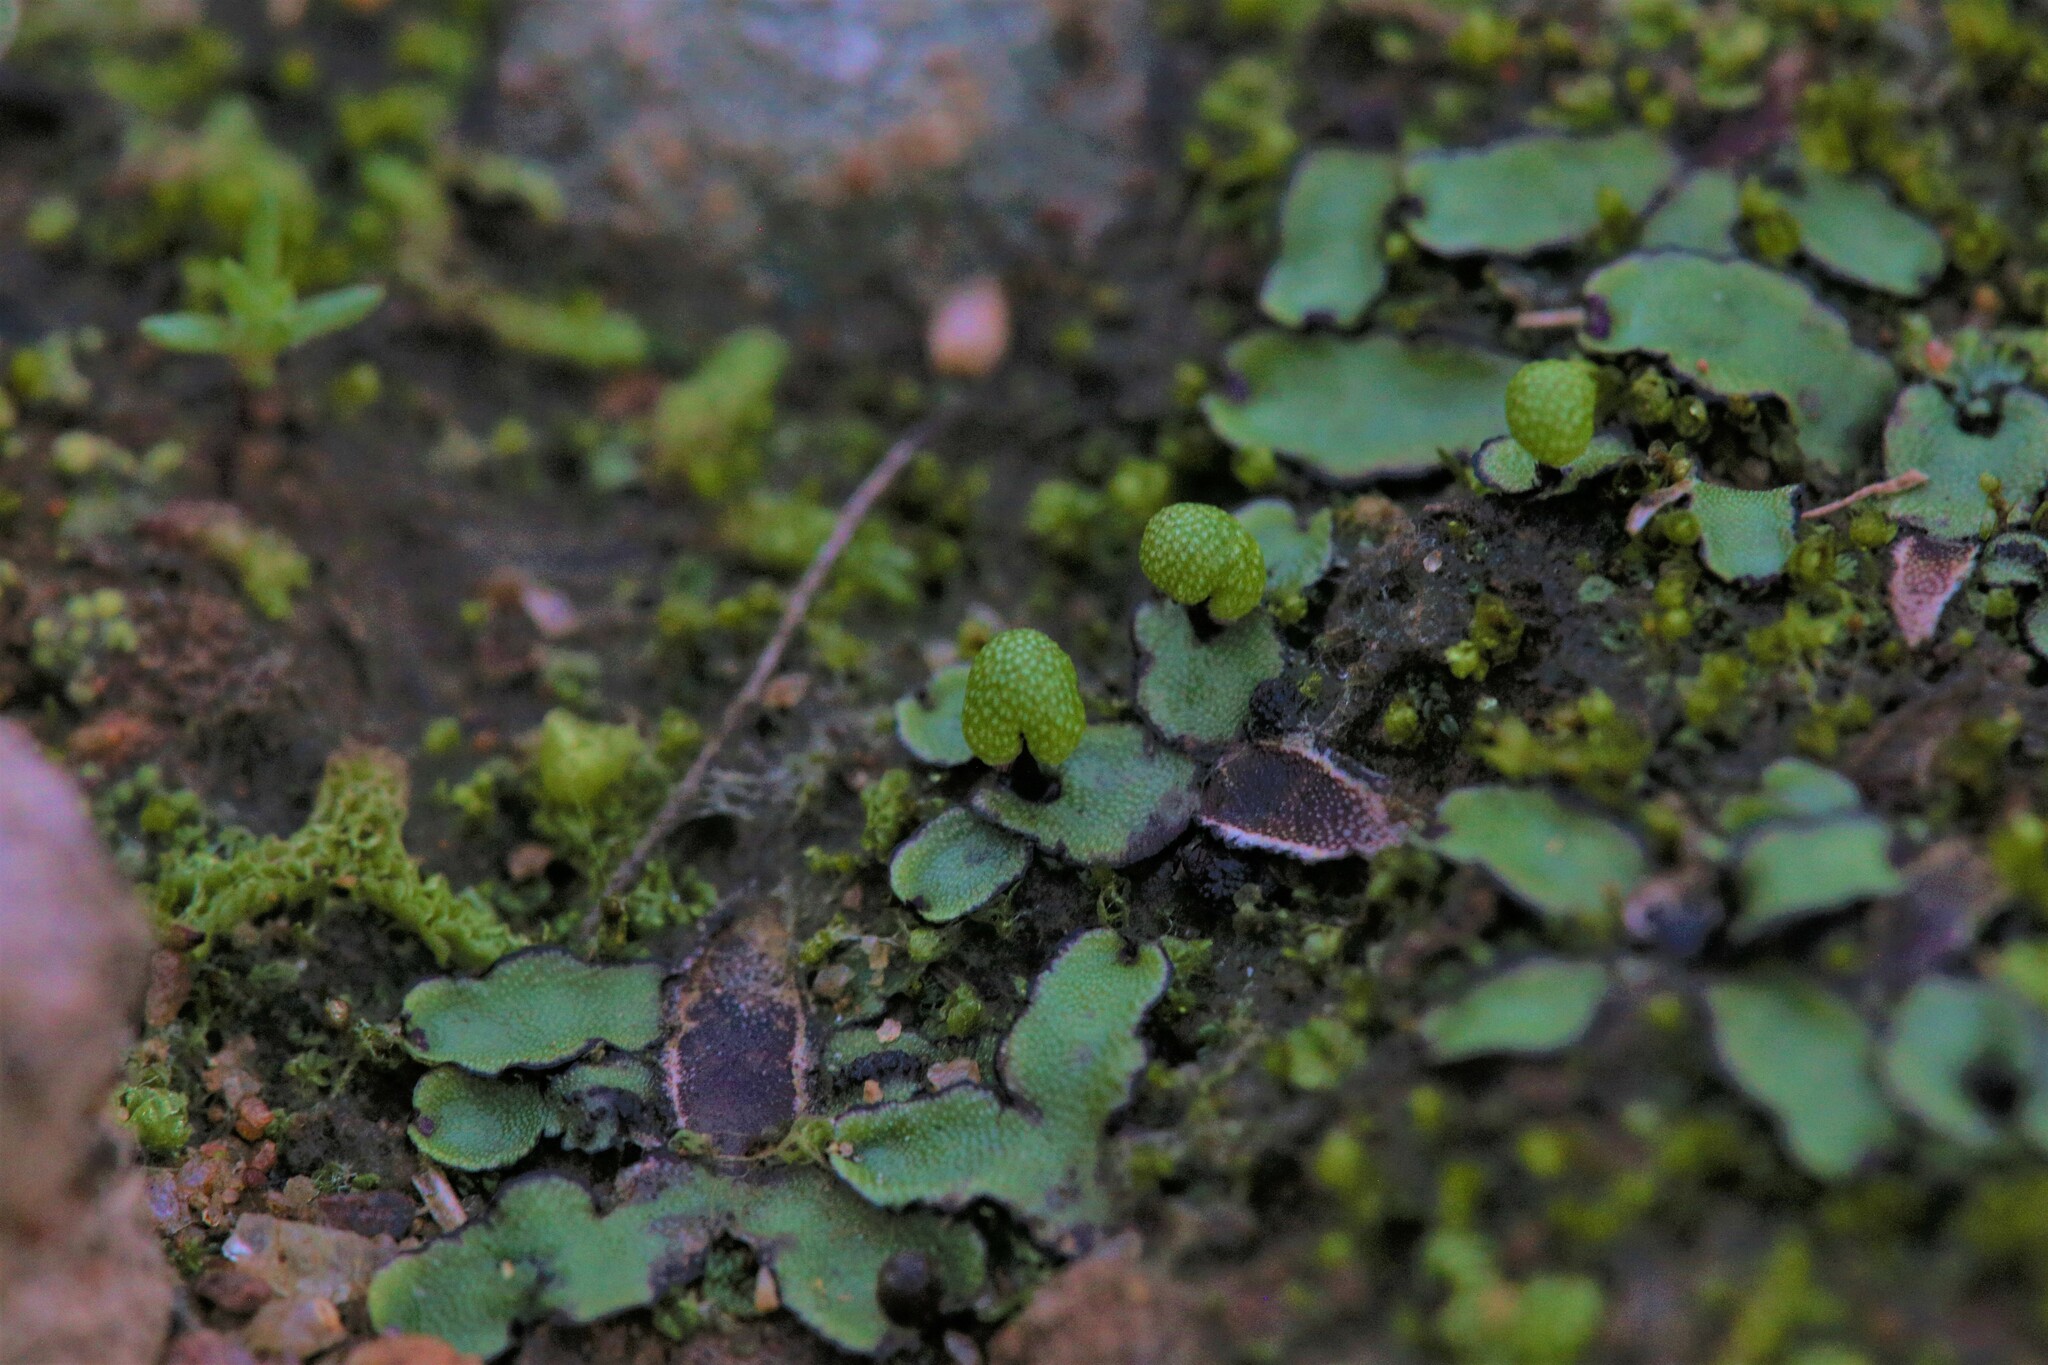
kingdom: Plantae
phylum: Marchantiophyta
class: Marchantiopsida
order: Marchantiales
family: Aytoniaceae
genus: Asterella
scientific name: Asterella drummondii
